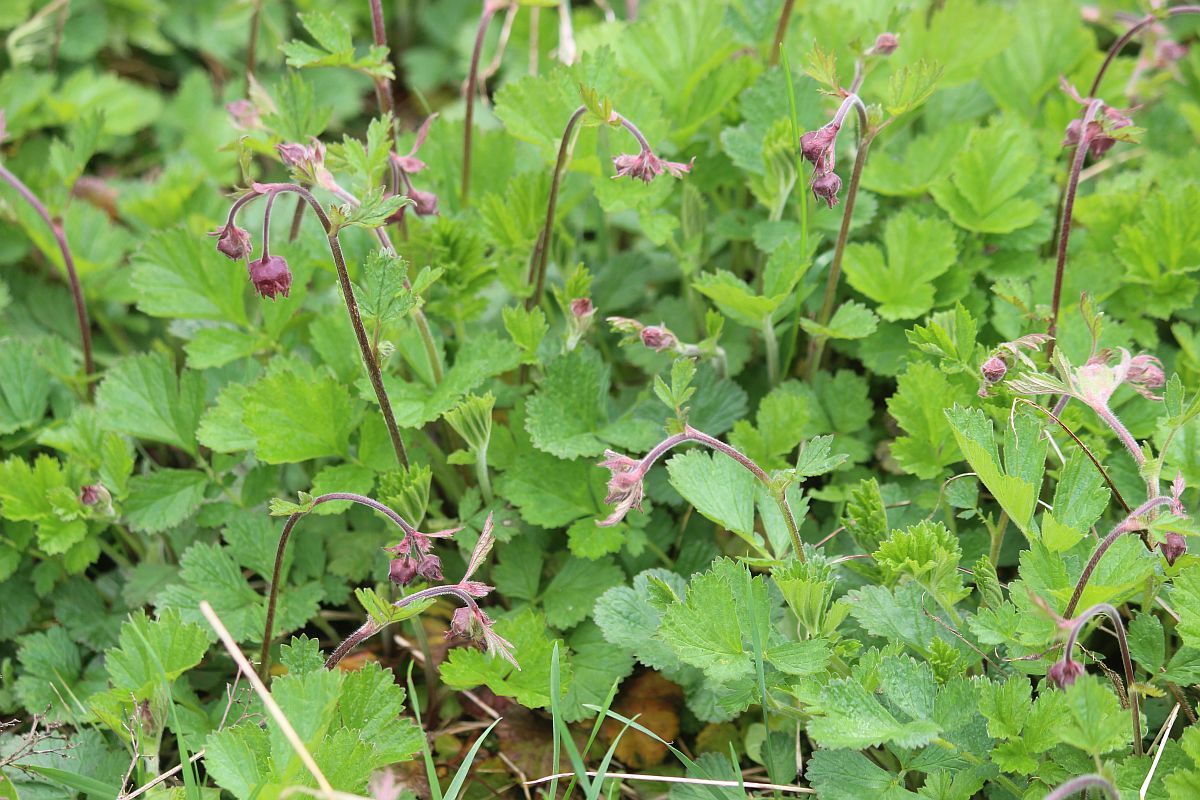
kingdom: Plantae
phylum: Tracheophyta
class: Magnoliopsida
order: Rosales
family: Rosaceae
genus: Geum
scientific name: Geum rivale
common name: Water avens
